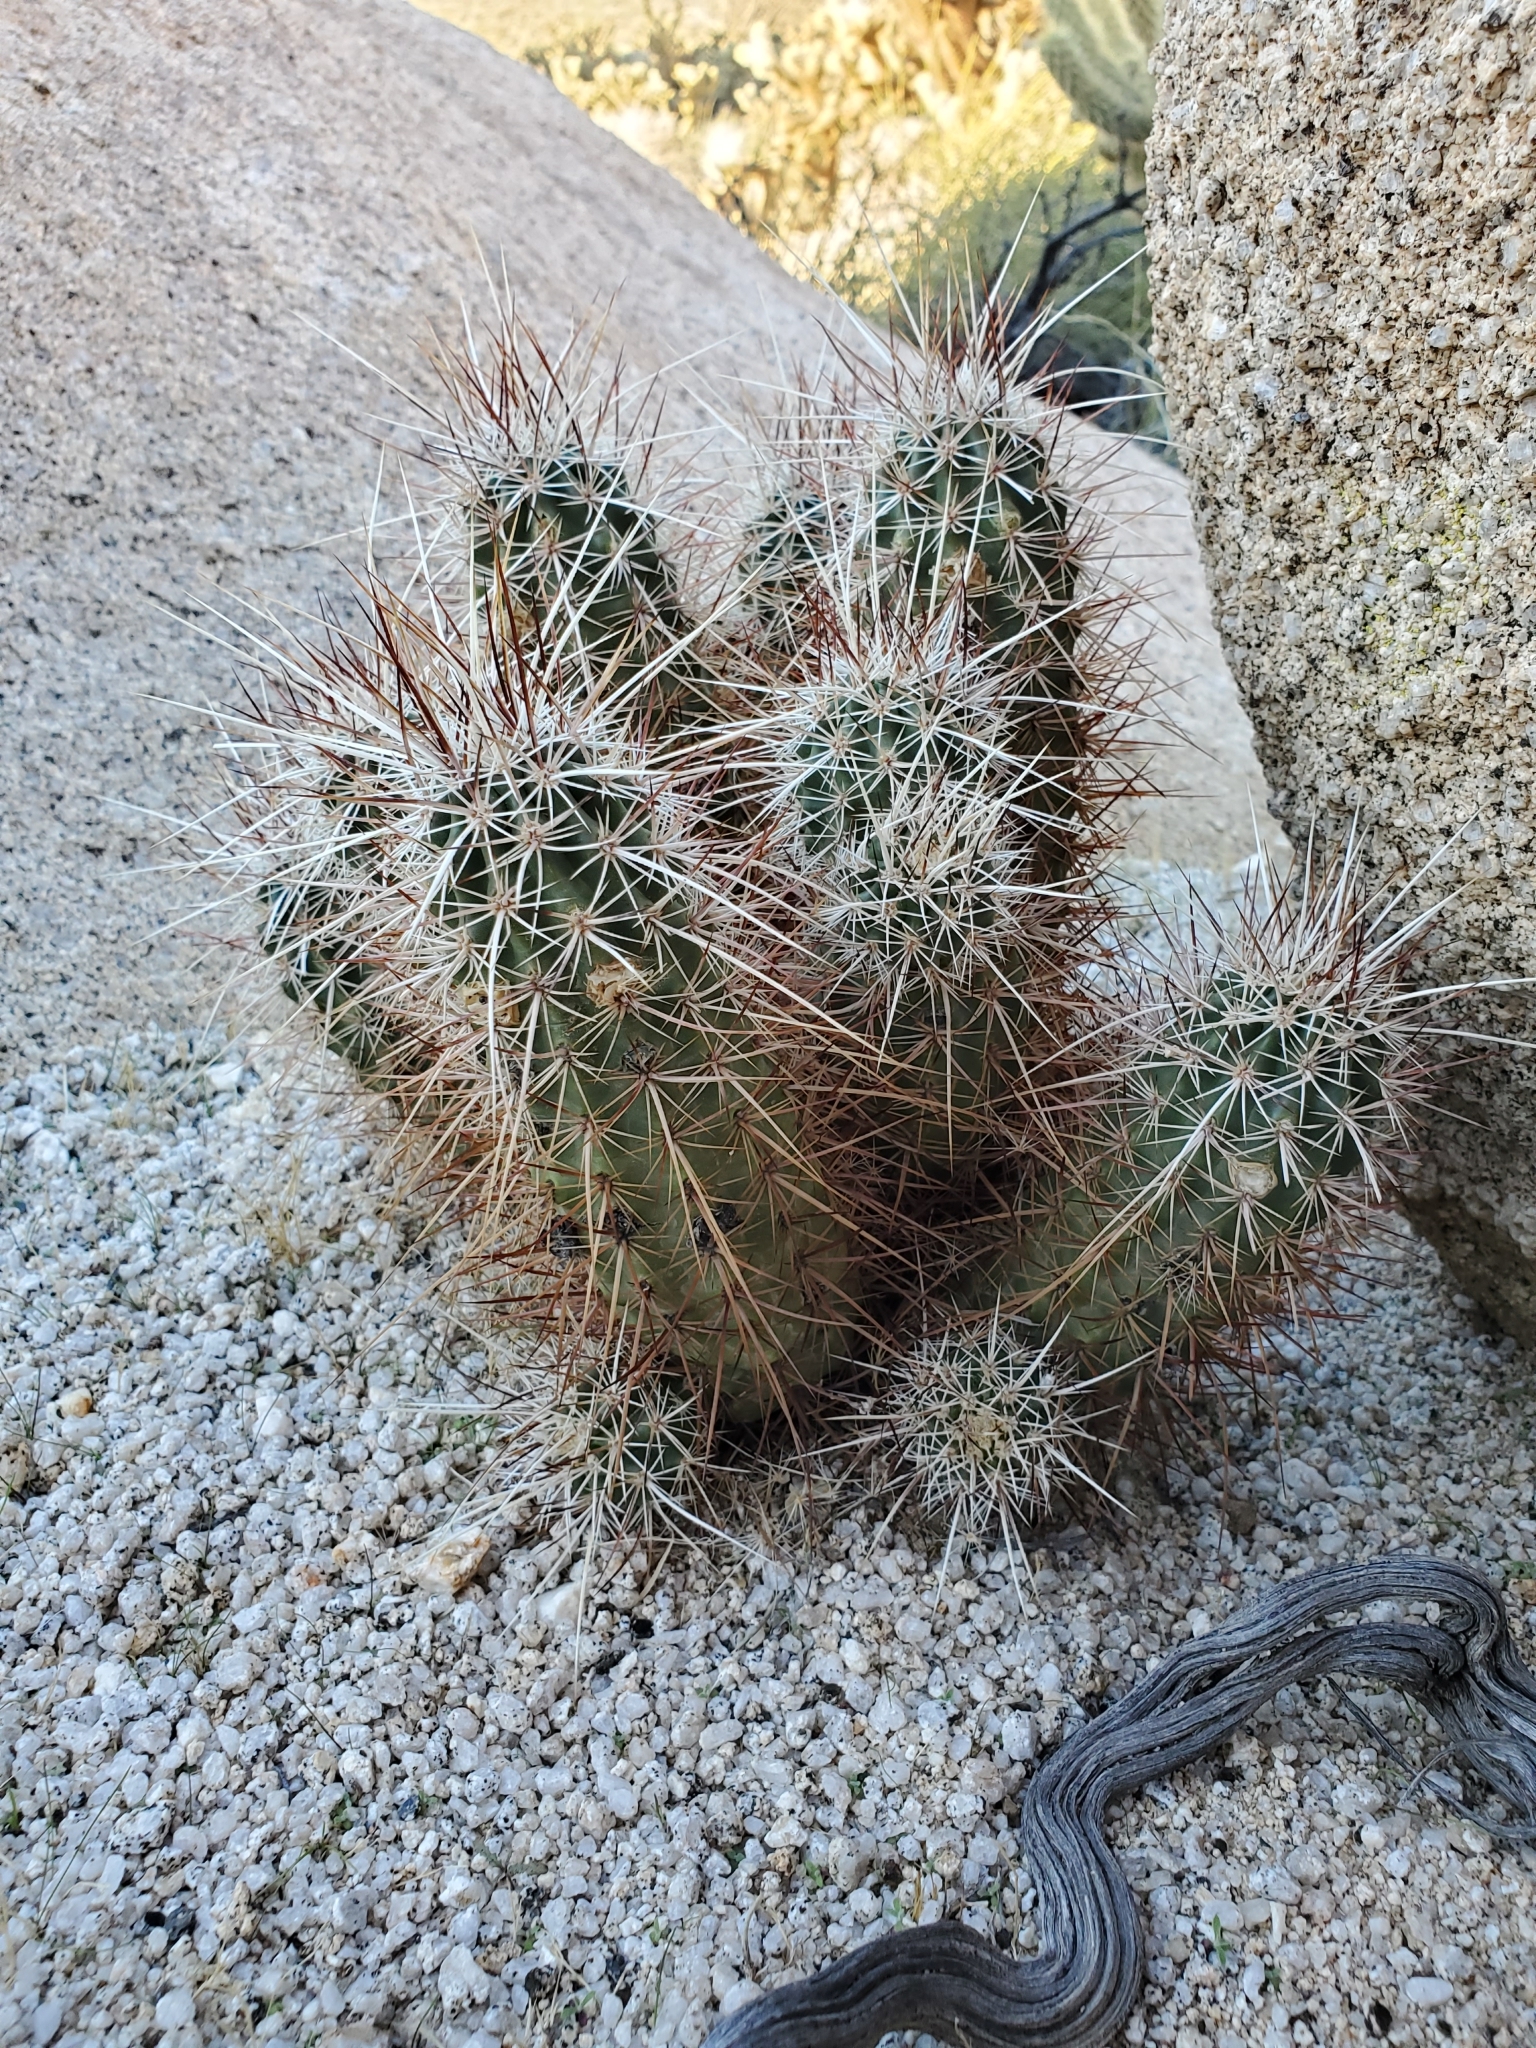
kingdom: Plantae
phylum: Tracheophyta
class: Magnoliopsida
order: Caryophyllales
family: Cactaceae
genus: Echinocereus
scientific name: Echinocereus engelmannii
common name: Engelmann's hedgehog cactus
